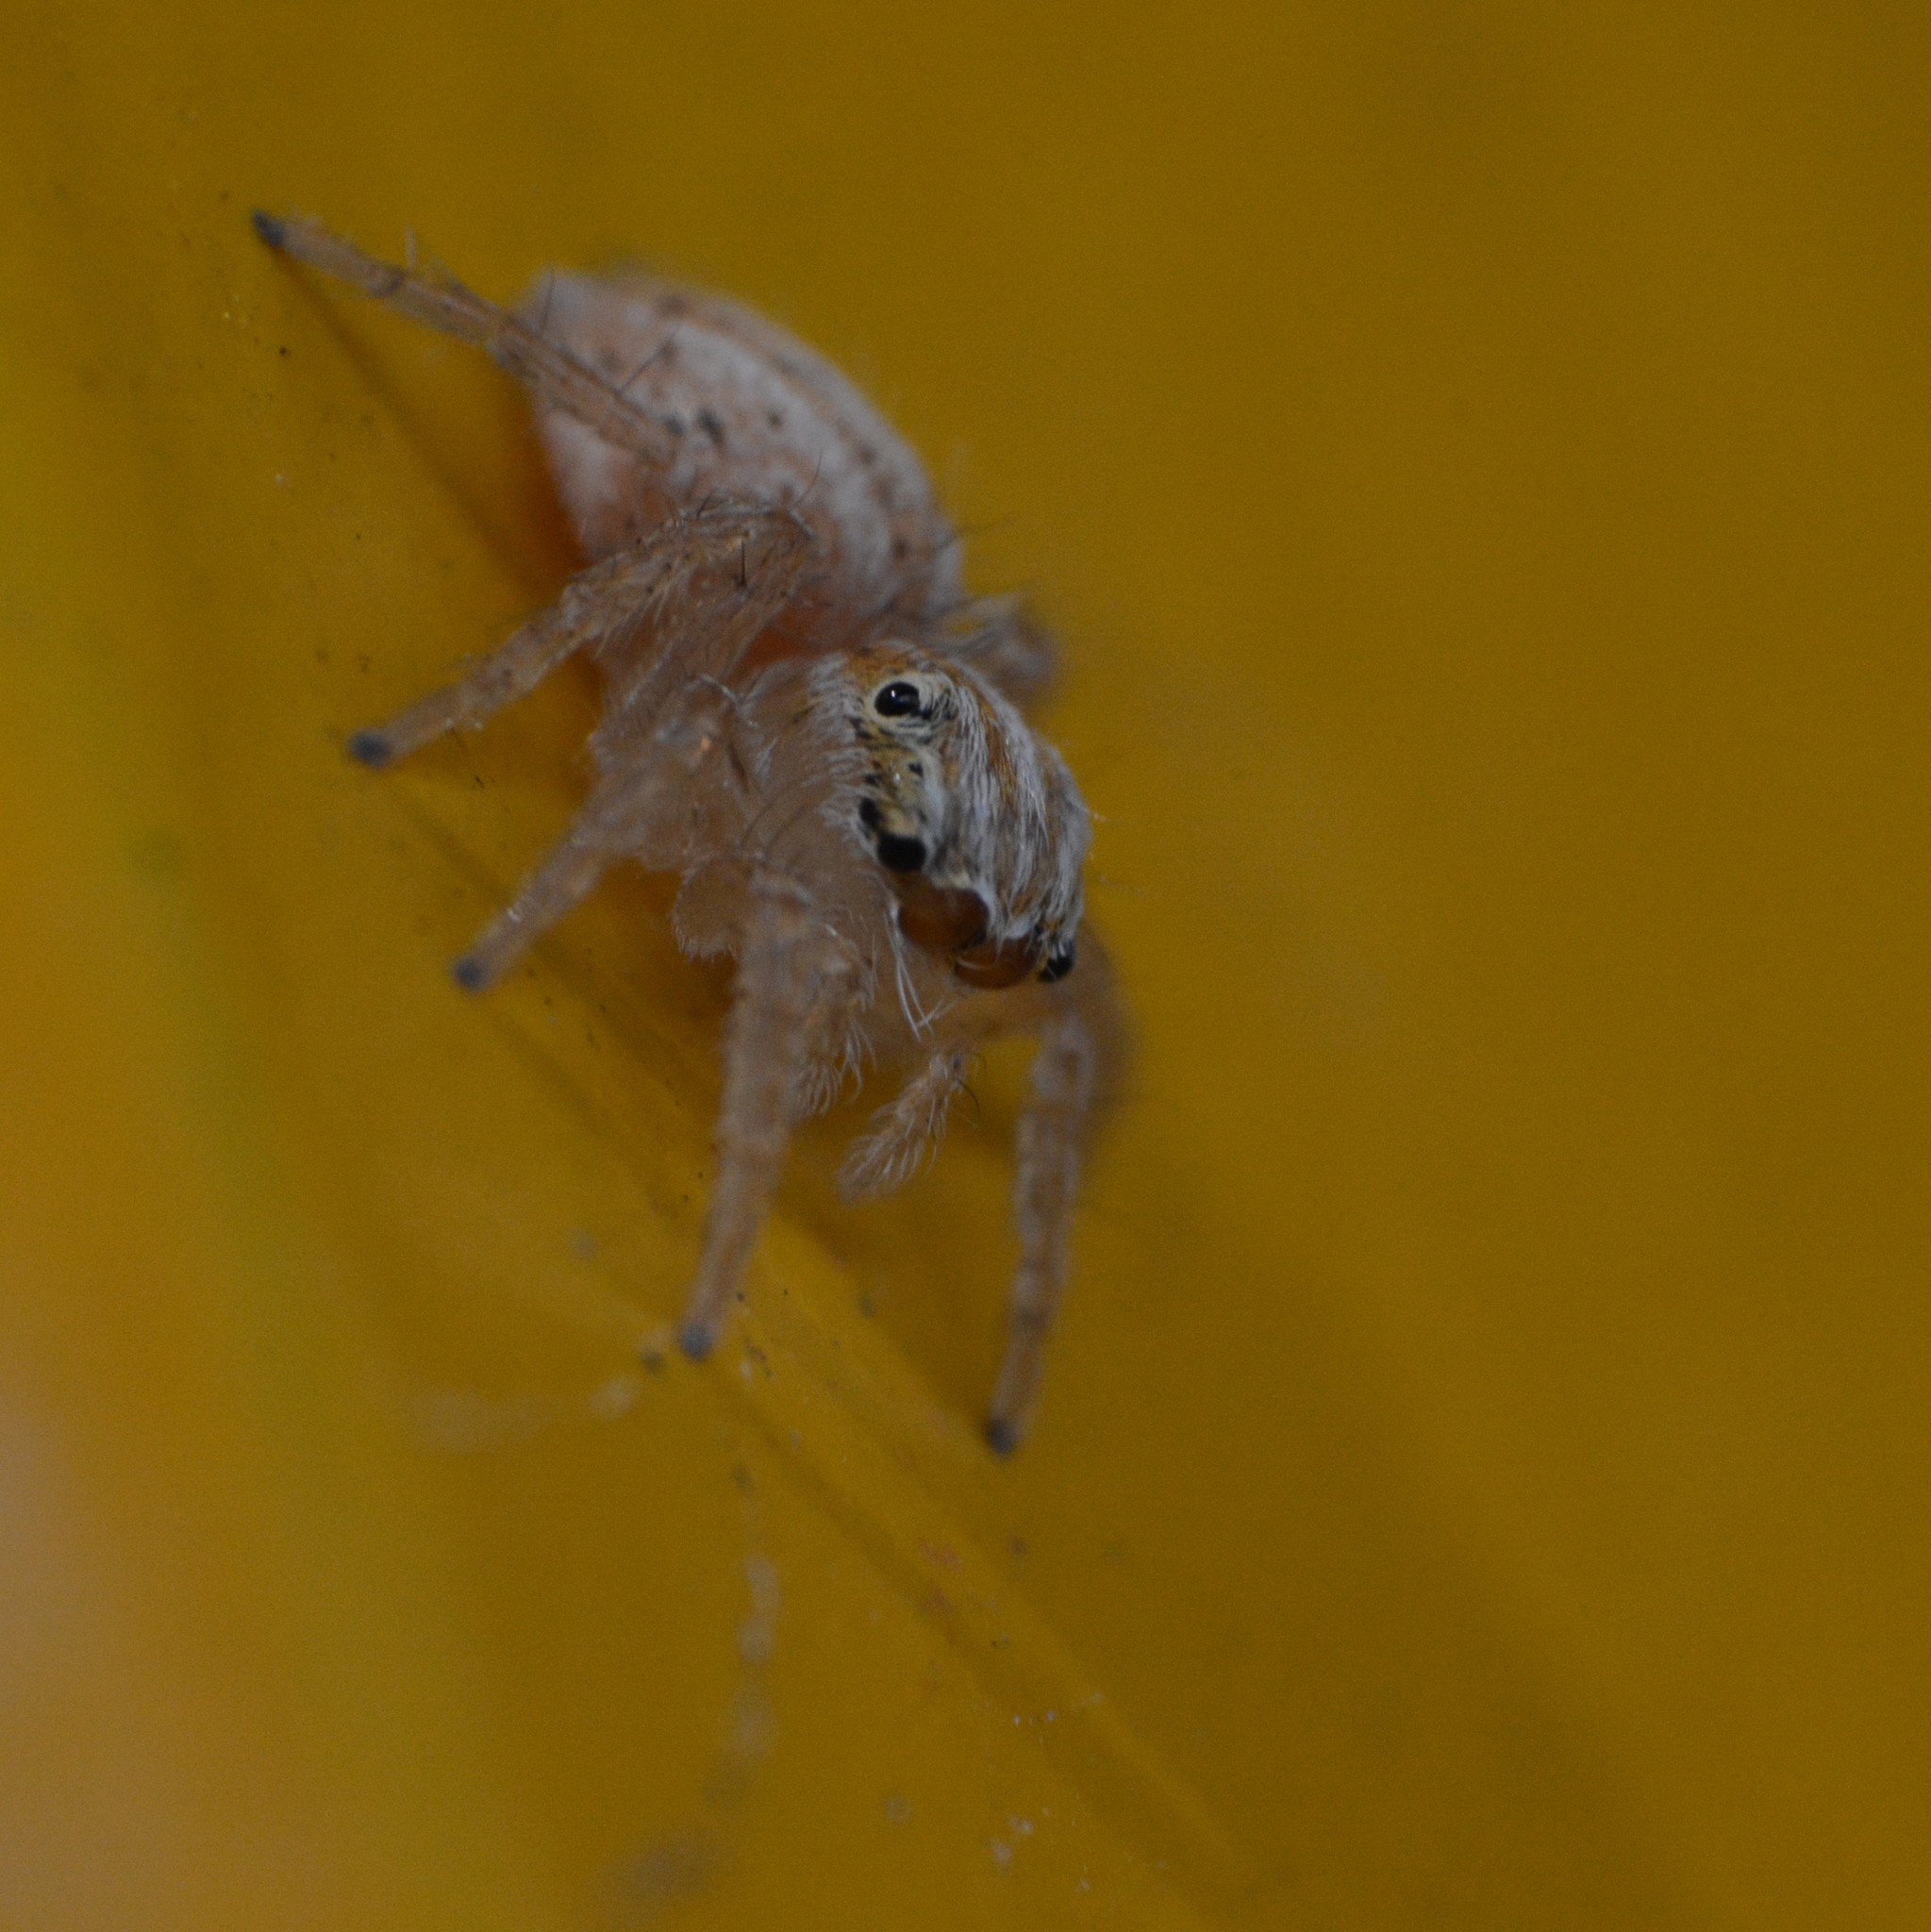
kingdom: Animalia
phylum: Arthropoda
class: Arachnida
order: Araneae
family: Salticidae
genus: Evarcha
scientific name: Evarcha flagellaris
